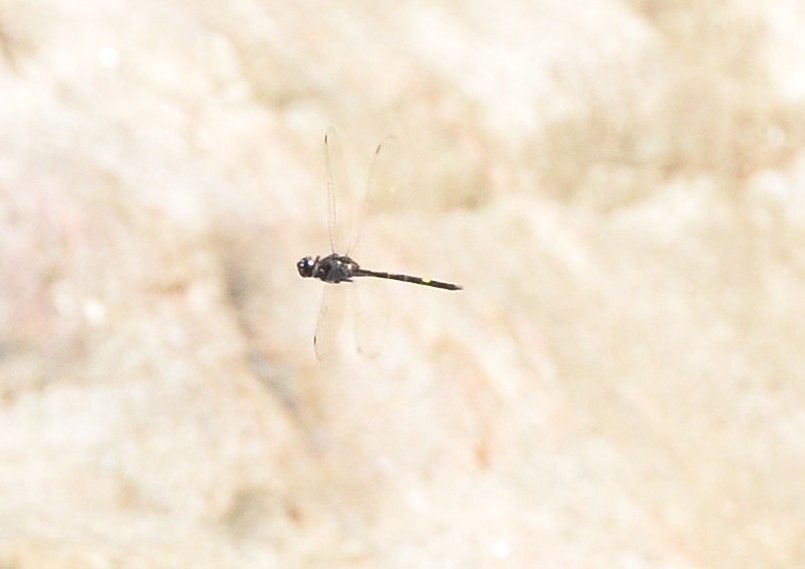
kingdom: Animalia
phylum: Arthropoda
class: Insecta
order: Odonata
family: Libellulidae
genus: Zygonyx
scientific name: Zygonyx iris
